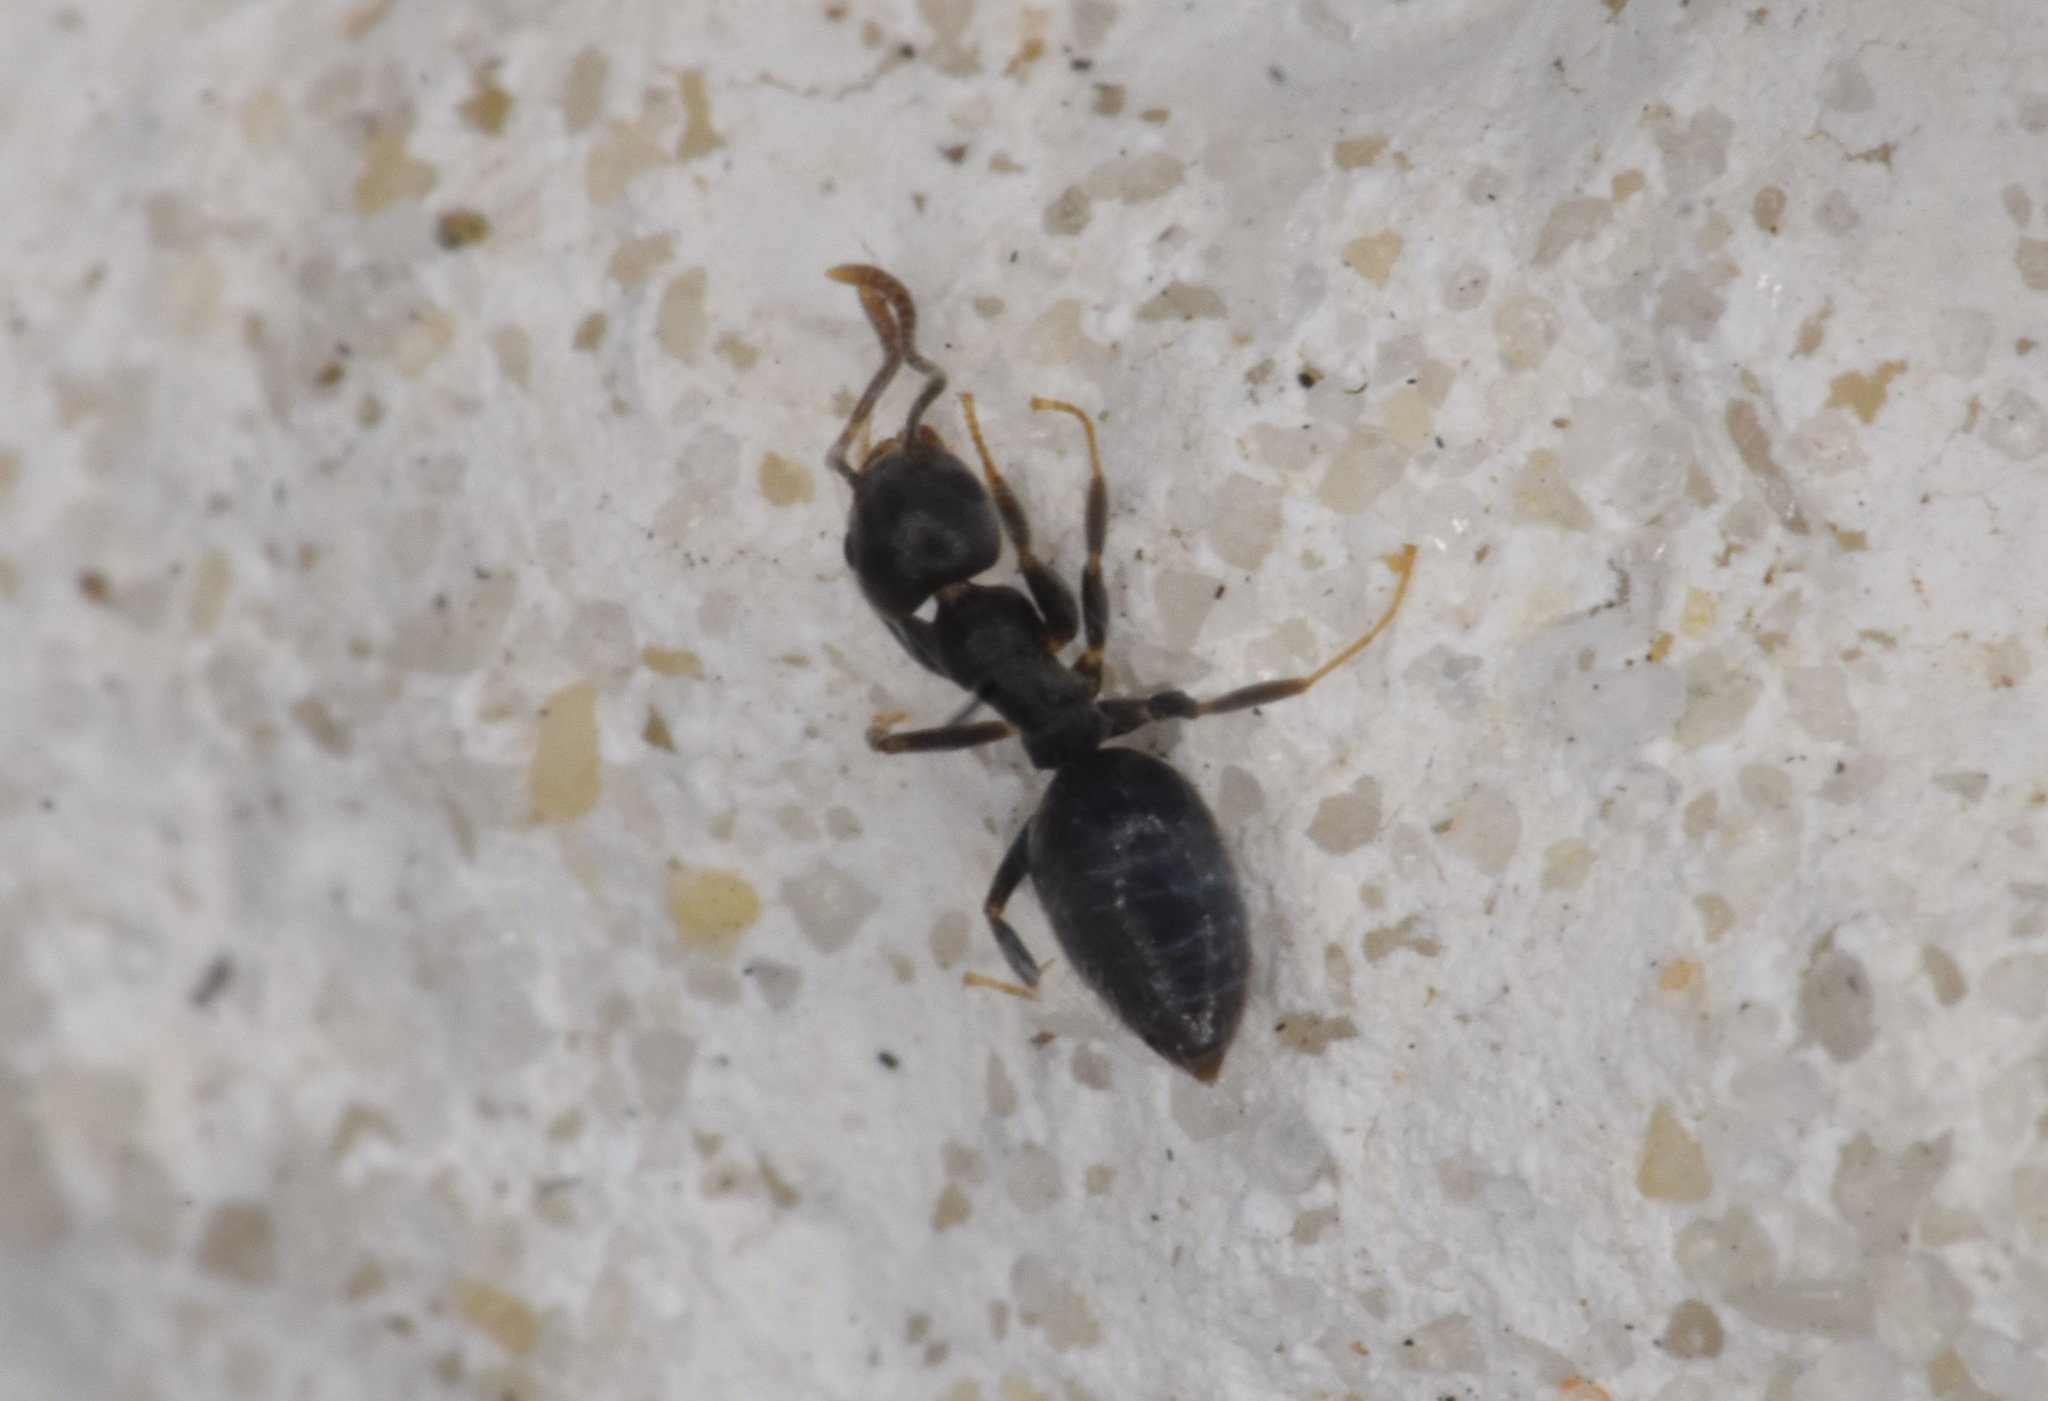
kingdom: Animalia
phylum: Arthropoda
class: Insecta
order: Hymenoptera
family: Formicidae
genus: Technomyrmex
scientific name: Technomyrmex difficilis
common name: Ant
